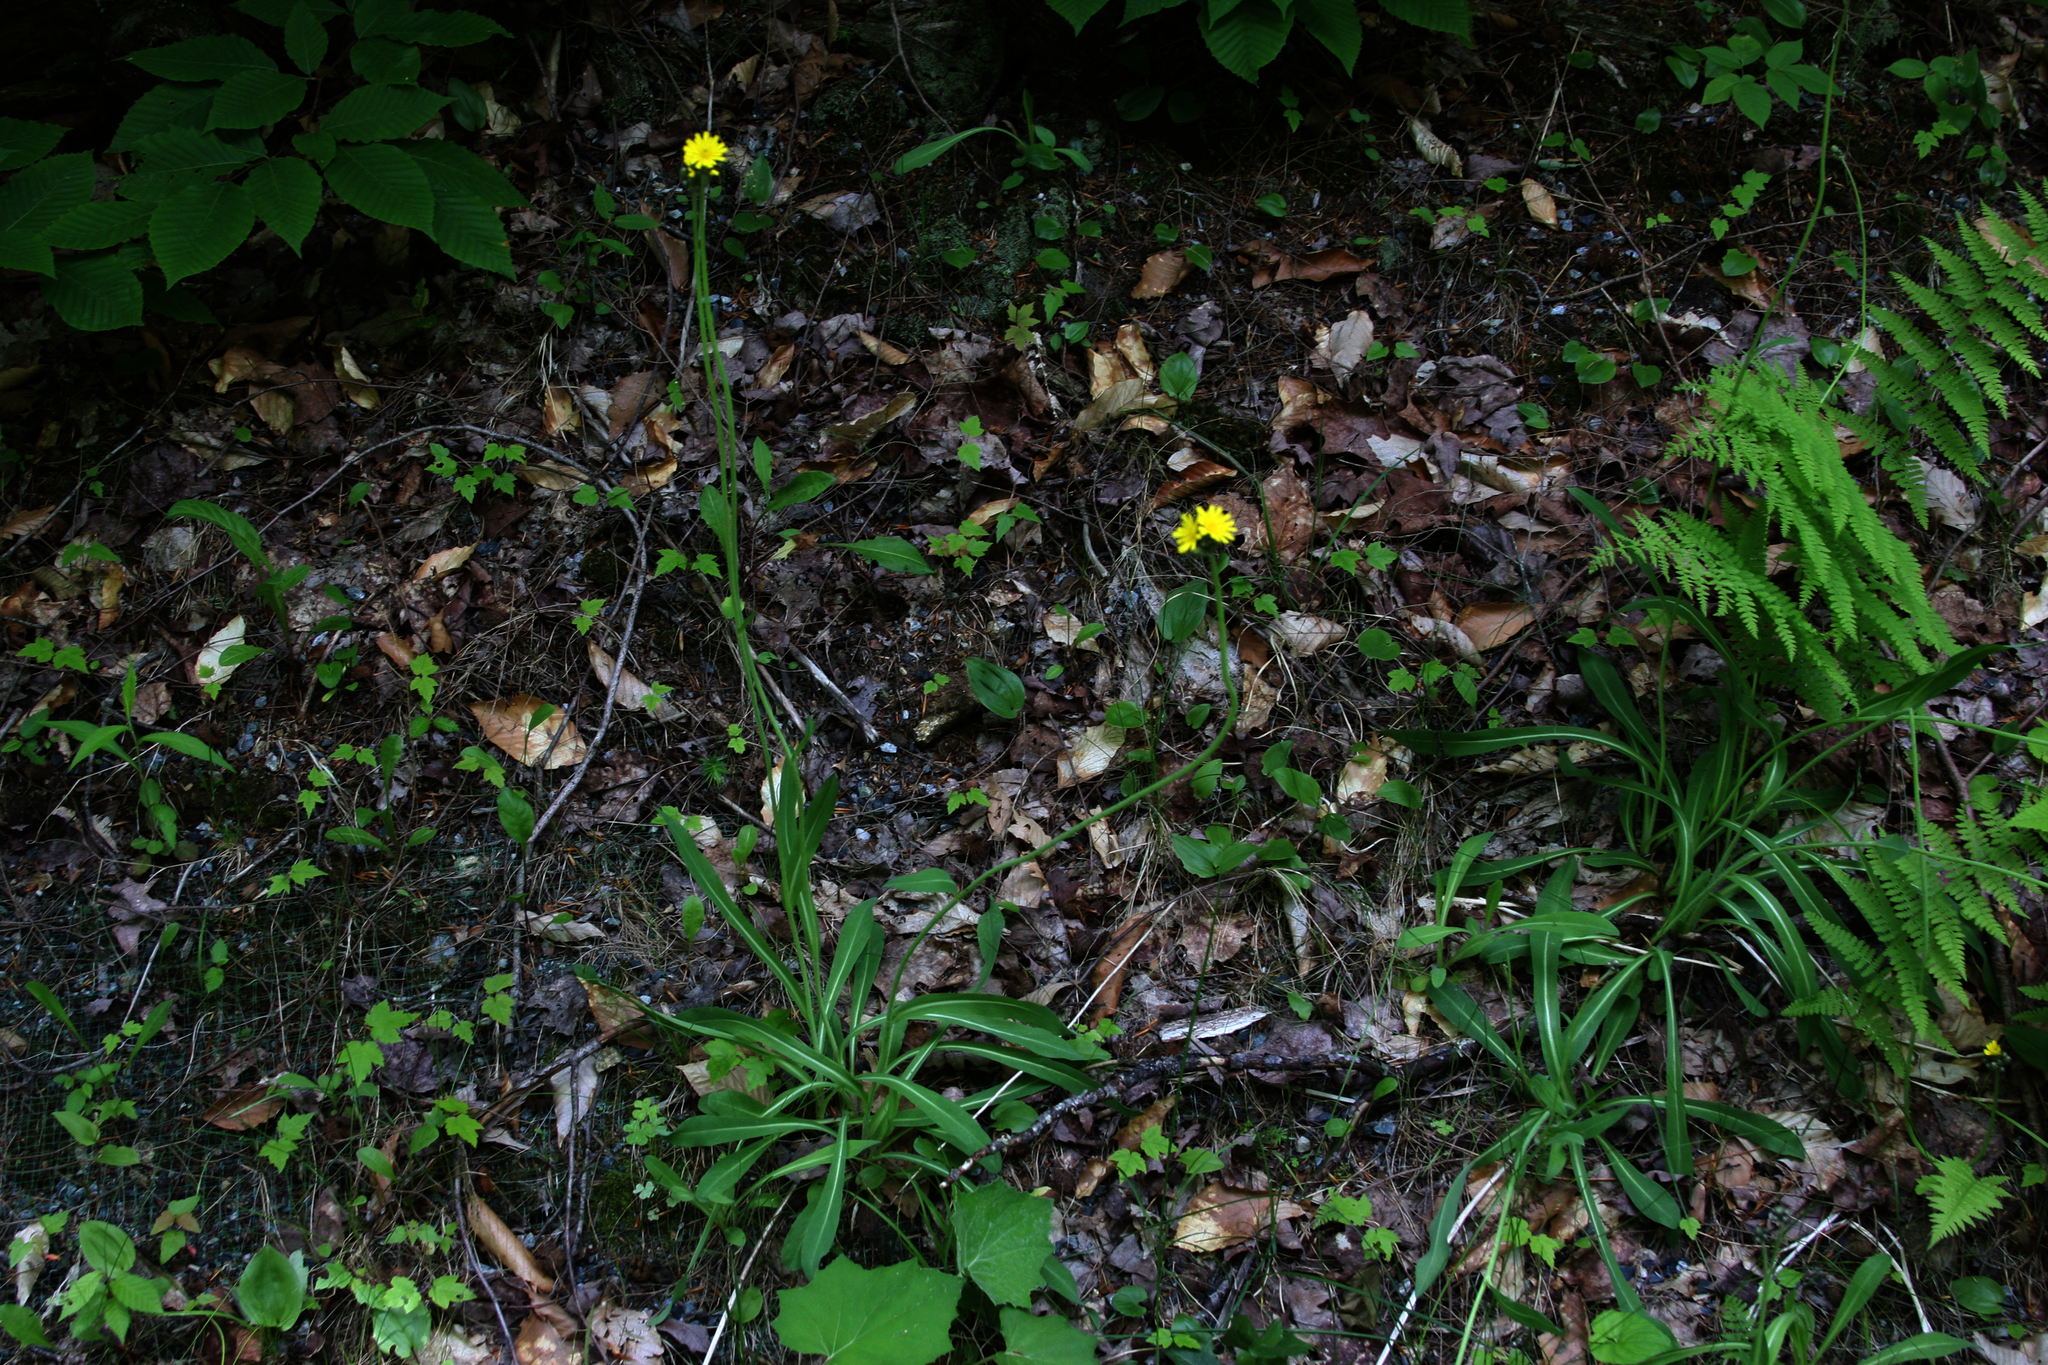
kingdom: Plantae
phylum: Tracheophyta
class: Magnoliopsida
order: Fagales
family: Fagaceae
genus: Fagus
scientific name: Fagus grandifolia
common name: American beech
